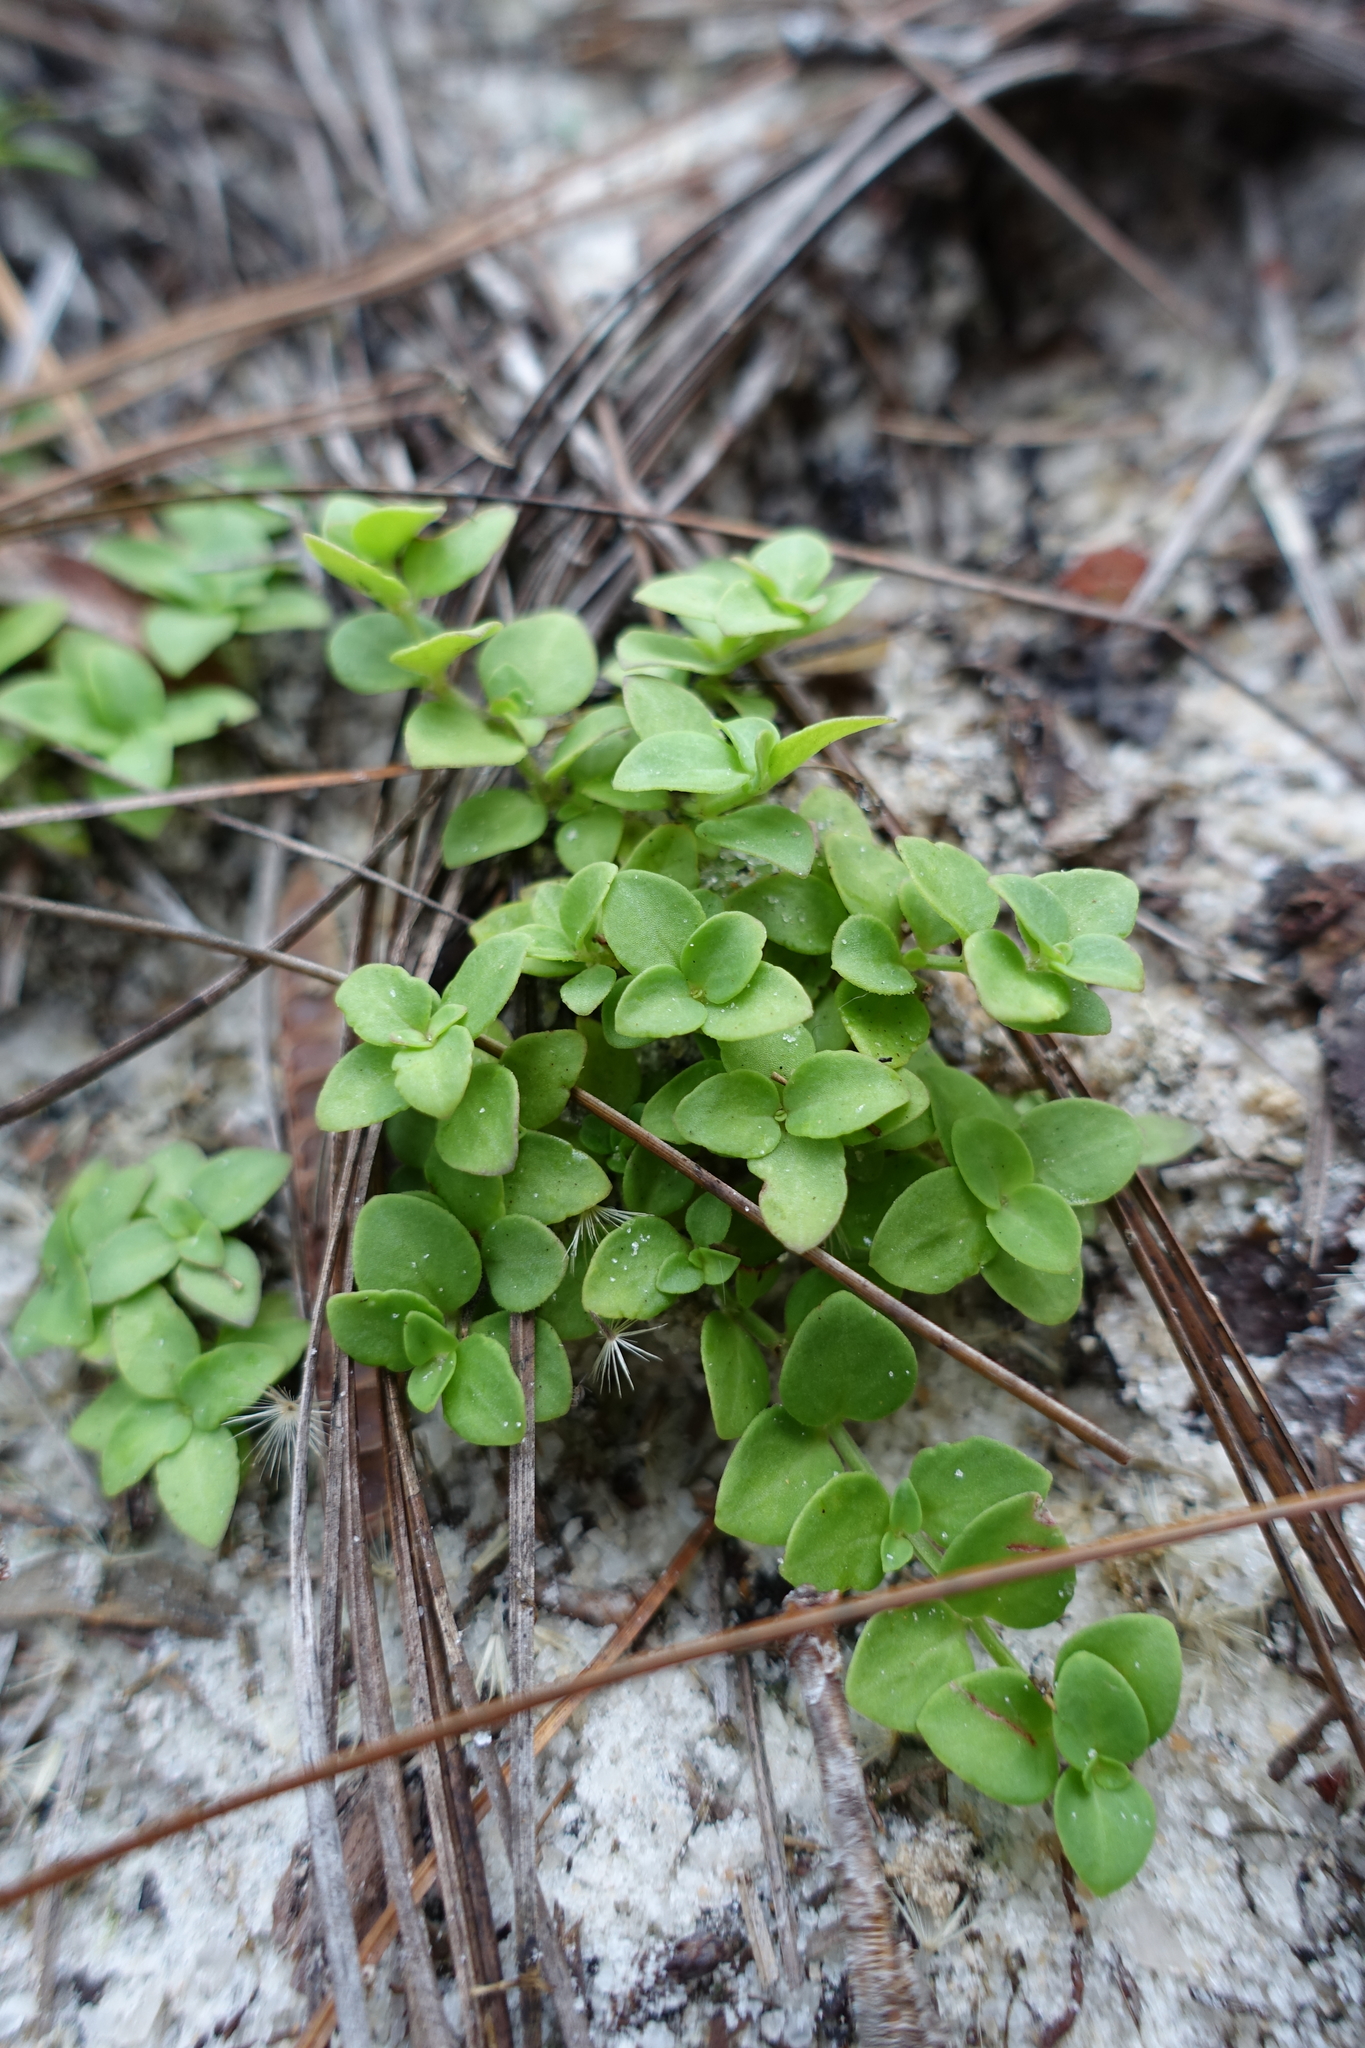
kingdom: Plantae
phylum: Tracheophyta
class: Magnoliopsida
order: Gentianales
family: Rubiaceae
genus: Houstonia
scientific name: Houstonia procumbens
